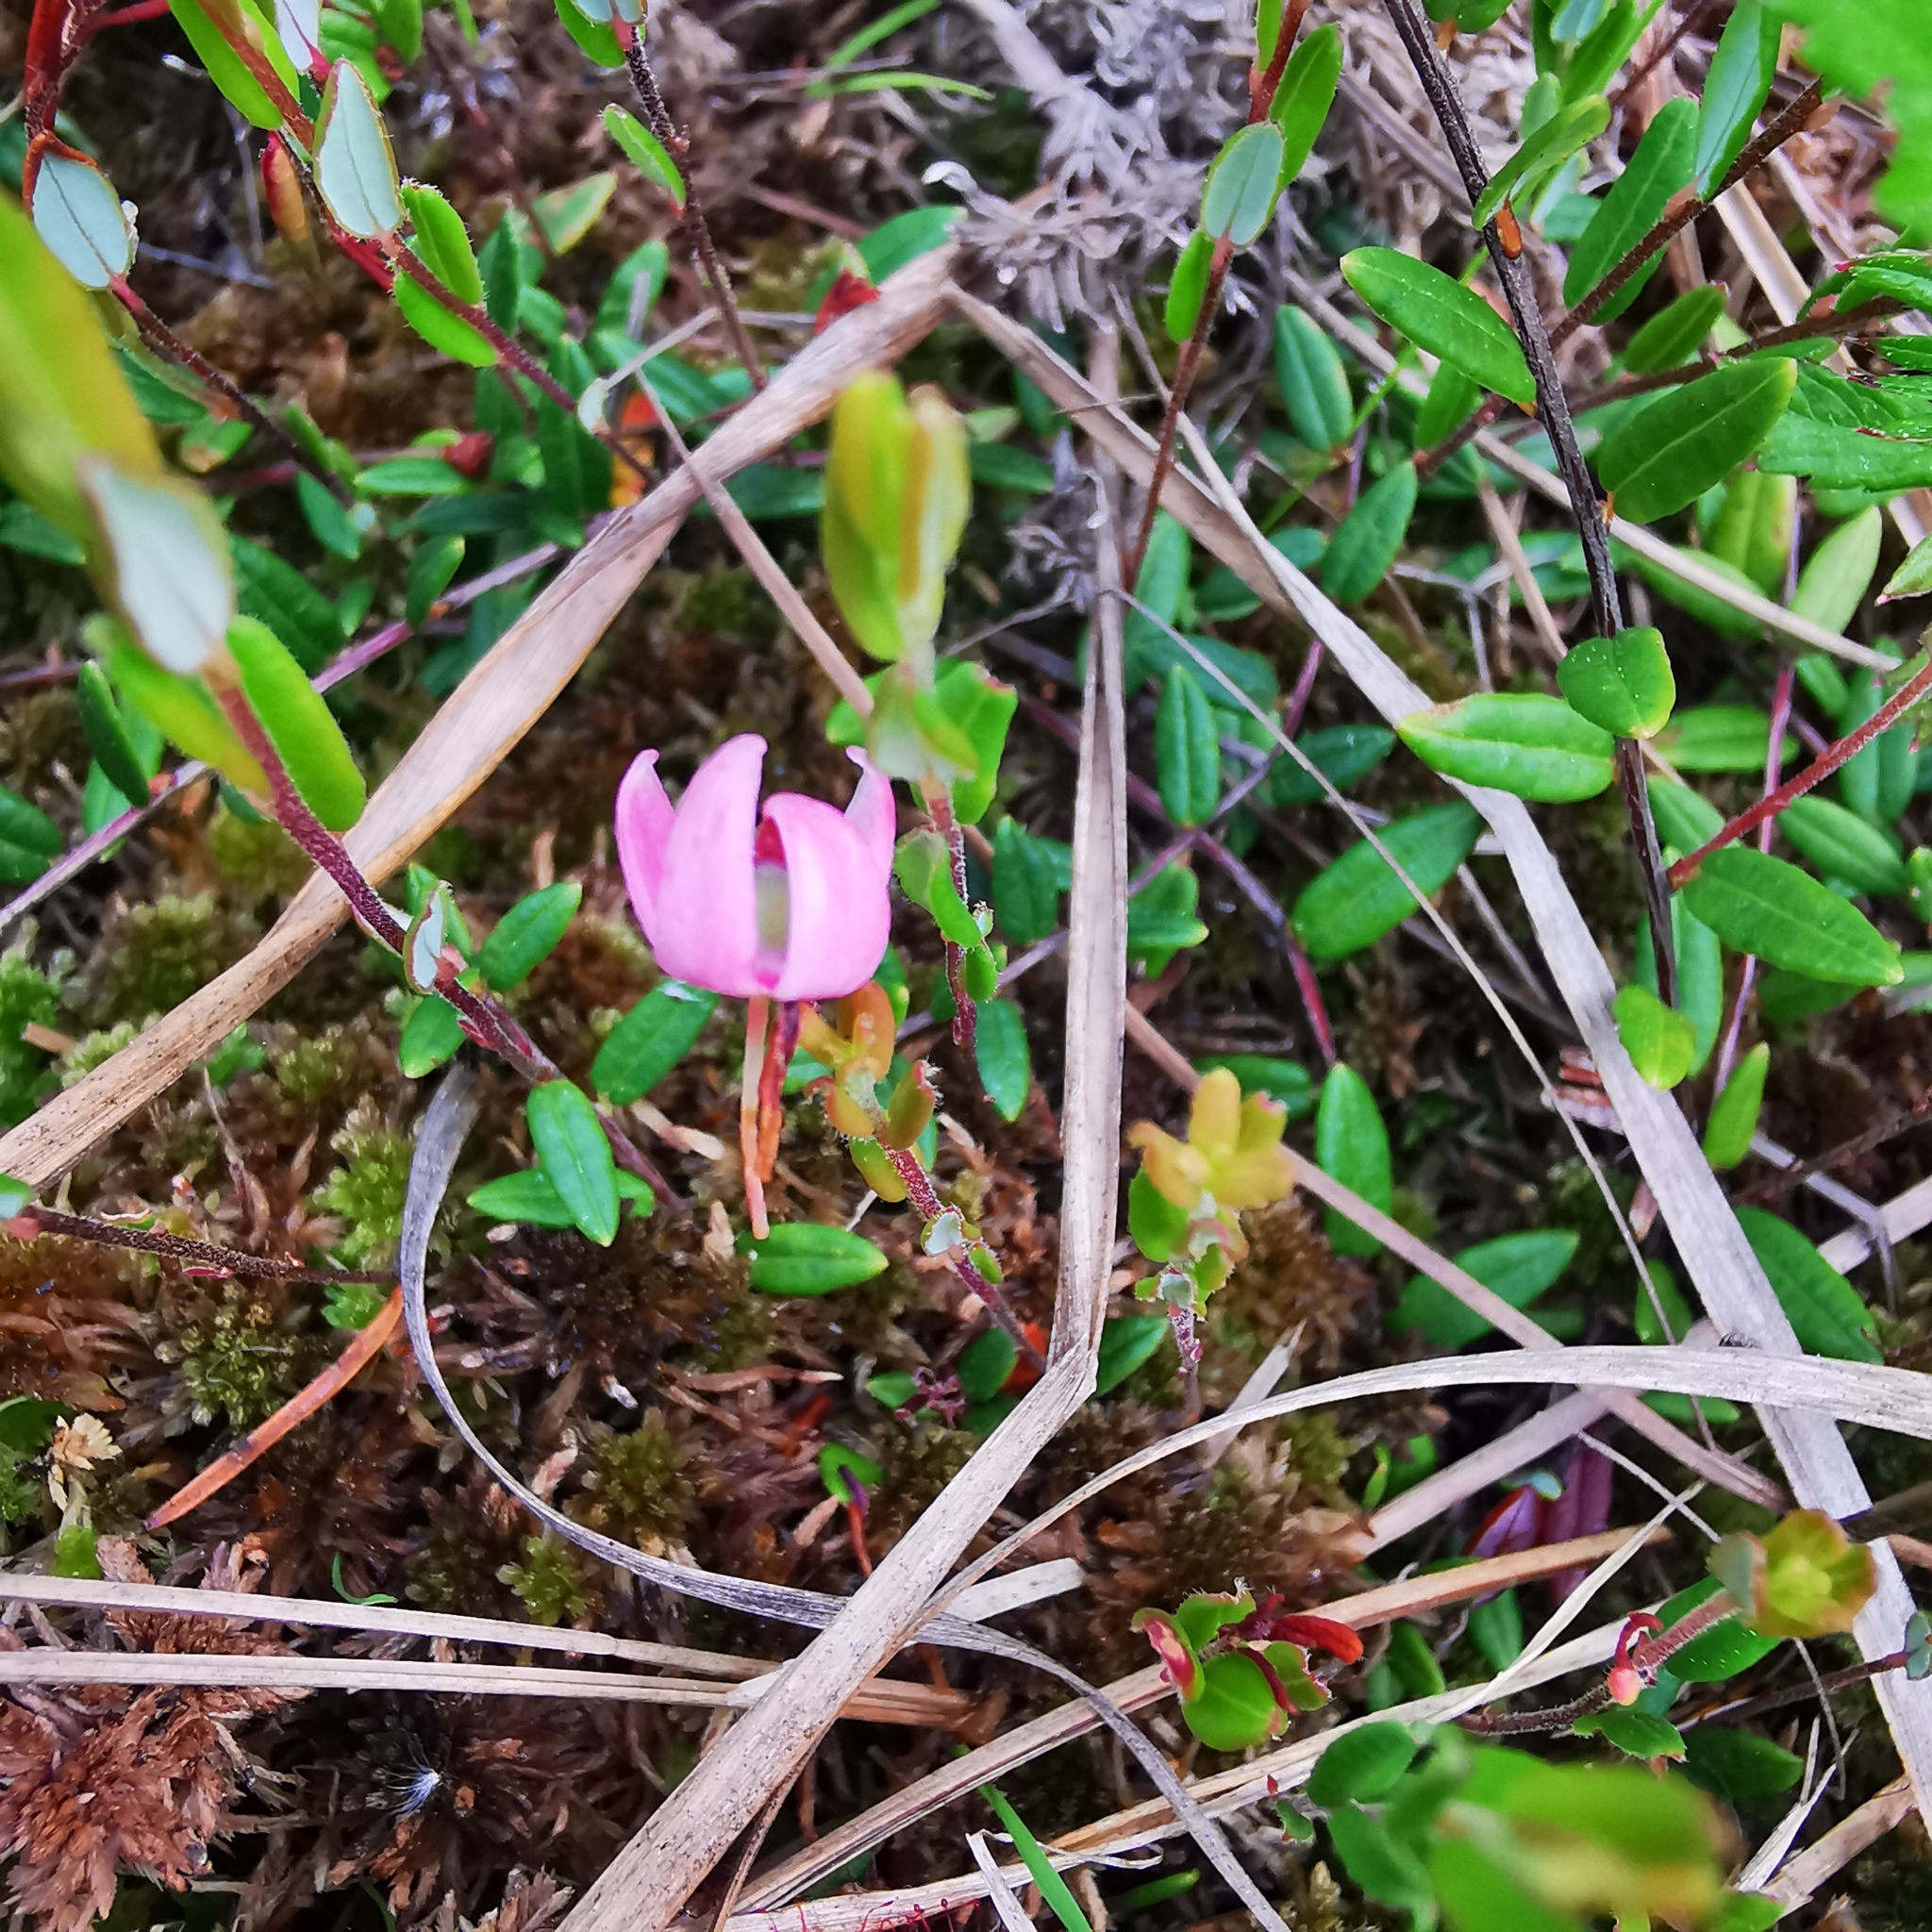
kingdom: Plantae
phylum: Tracheophyta
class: Magnoliopsida
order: Ericales
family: Ericaceae
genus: Vaccinium
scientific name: Vaccinium oxycoccos
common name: Cranberry
